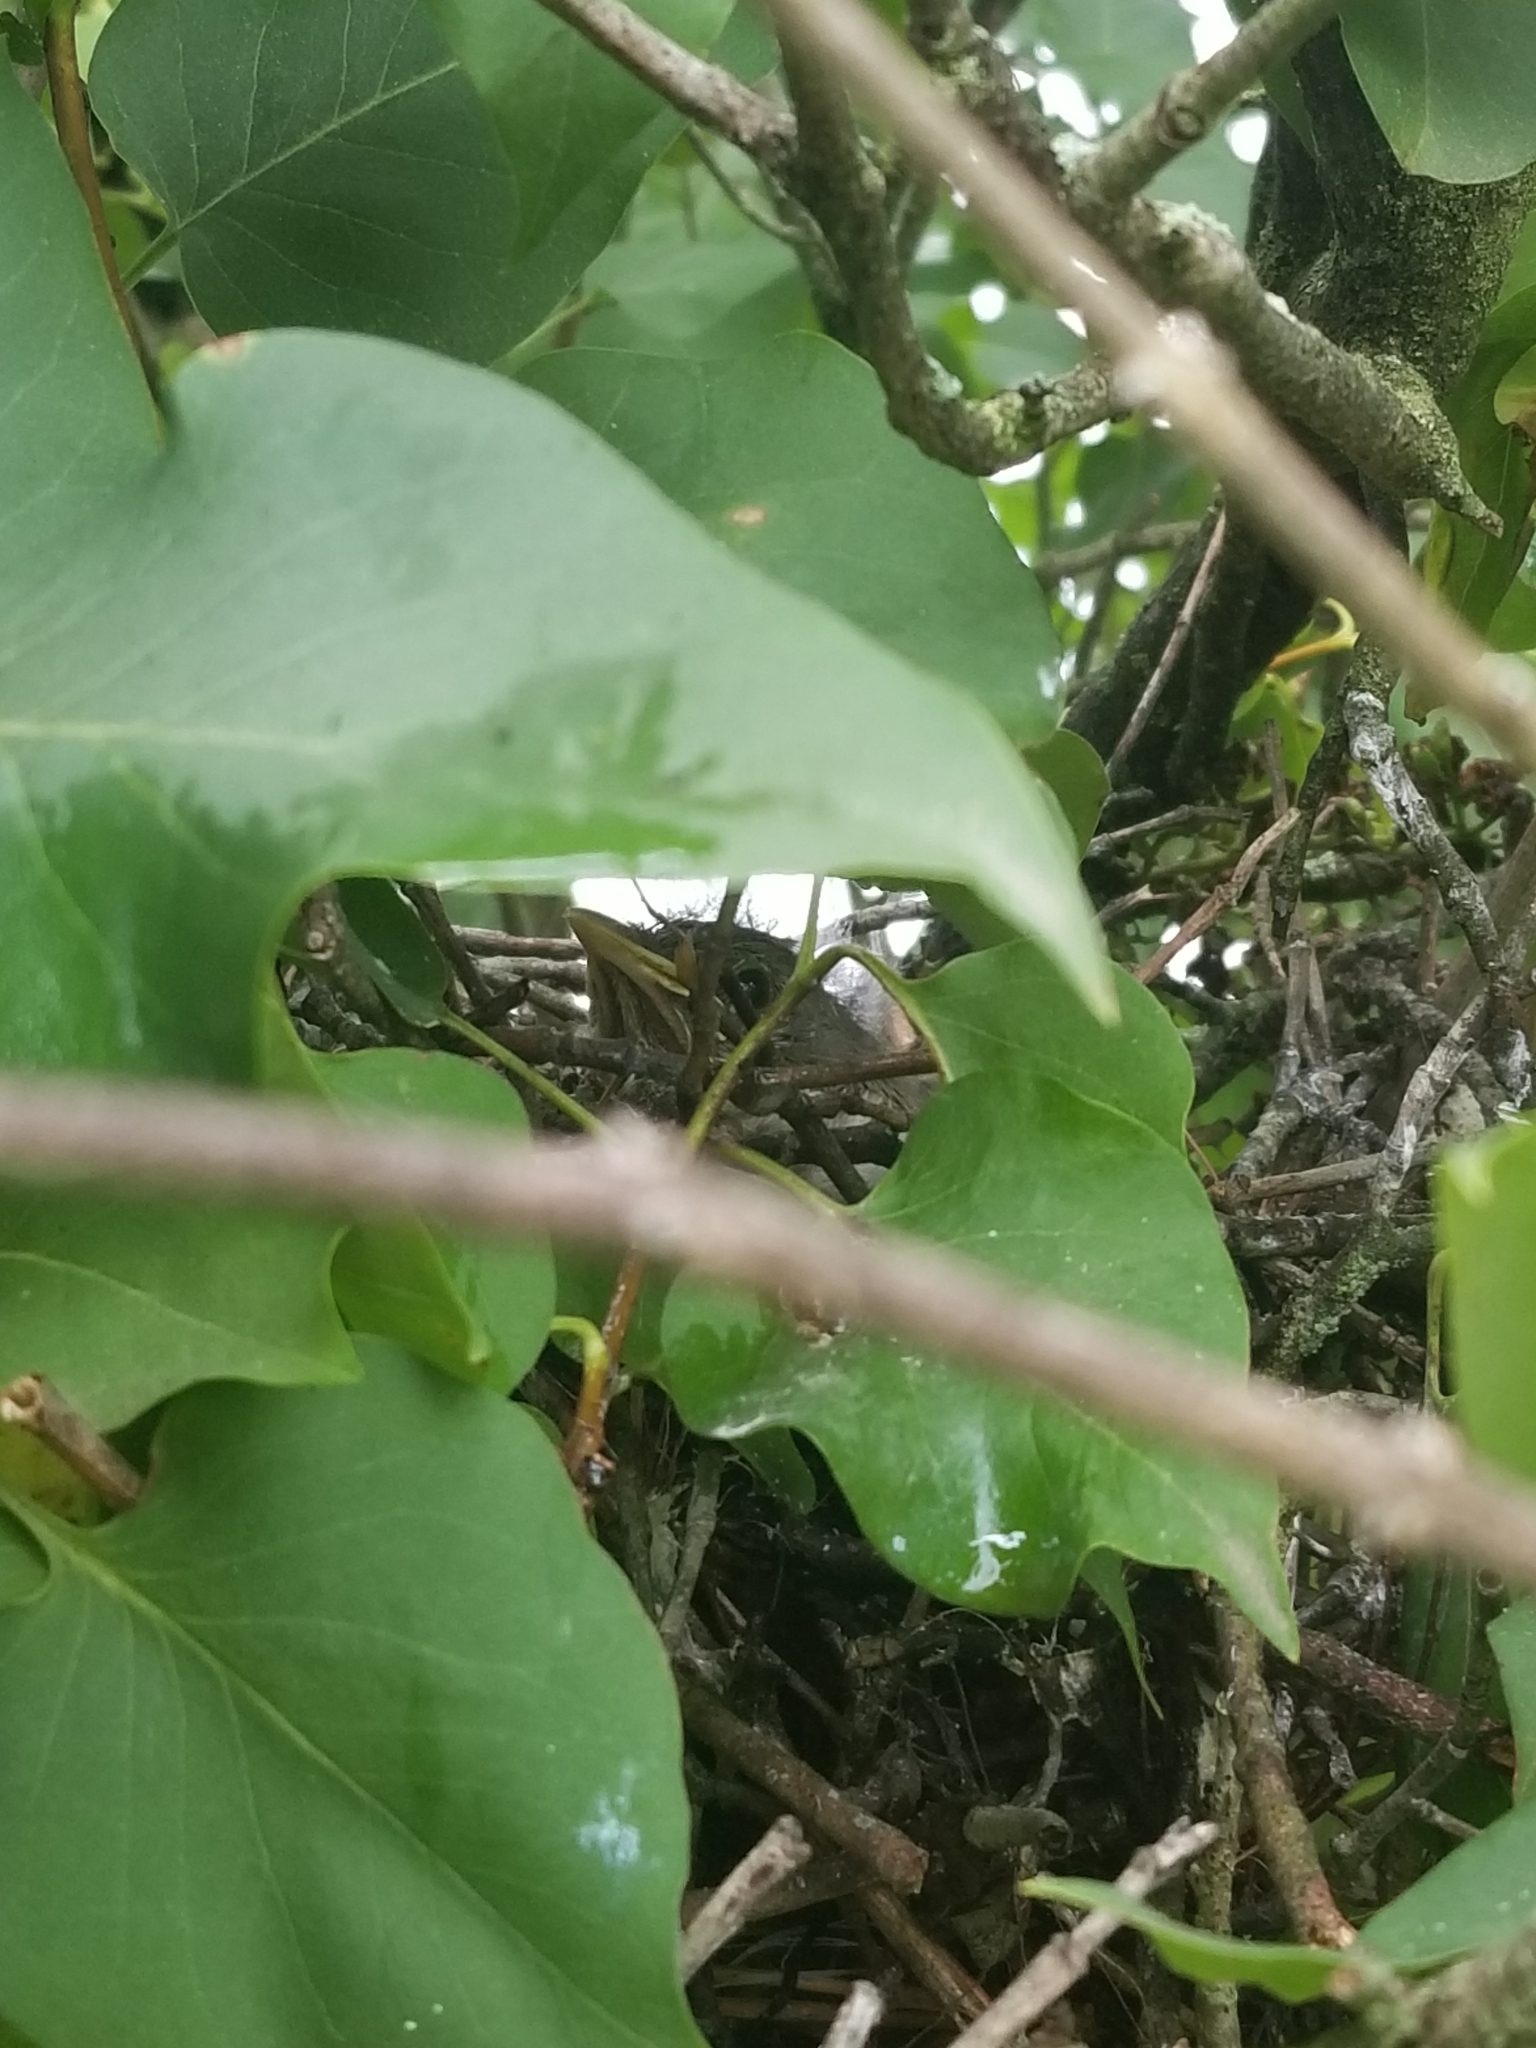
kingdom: Animalia
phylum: Chordata
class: Aves
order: Passeriformes
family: Mimidae
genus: Mimus
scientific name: Mimus polyglottos
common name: Northern mockingbird
